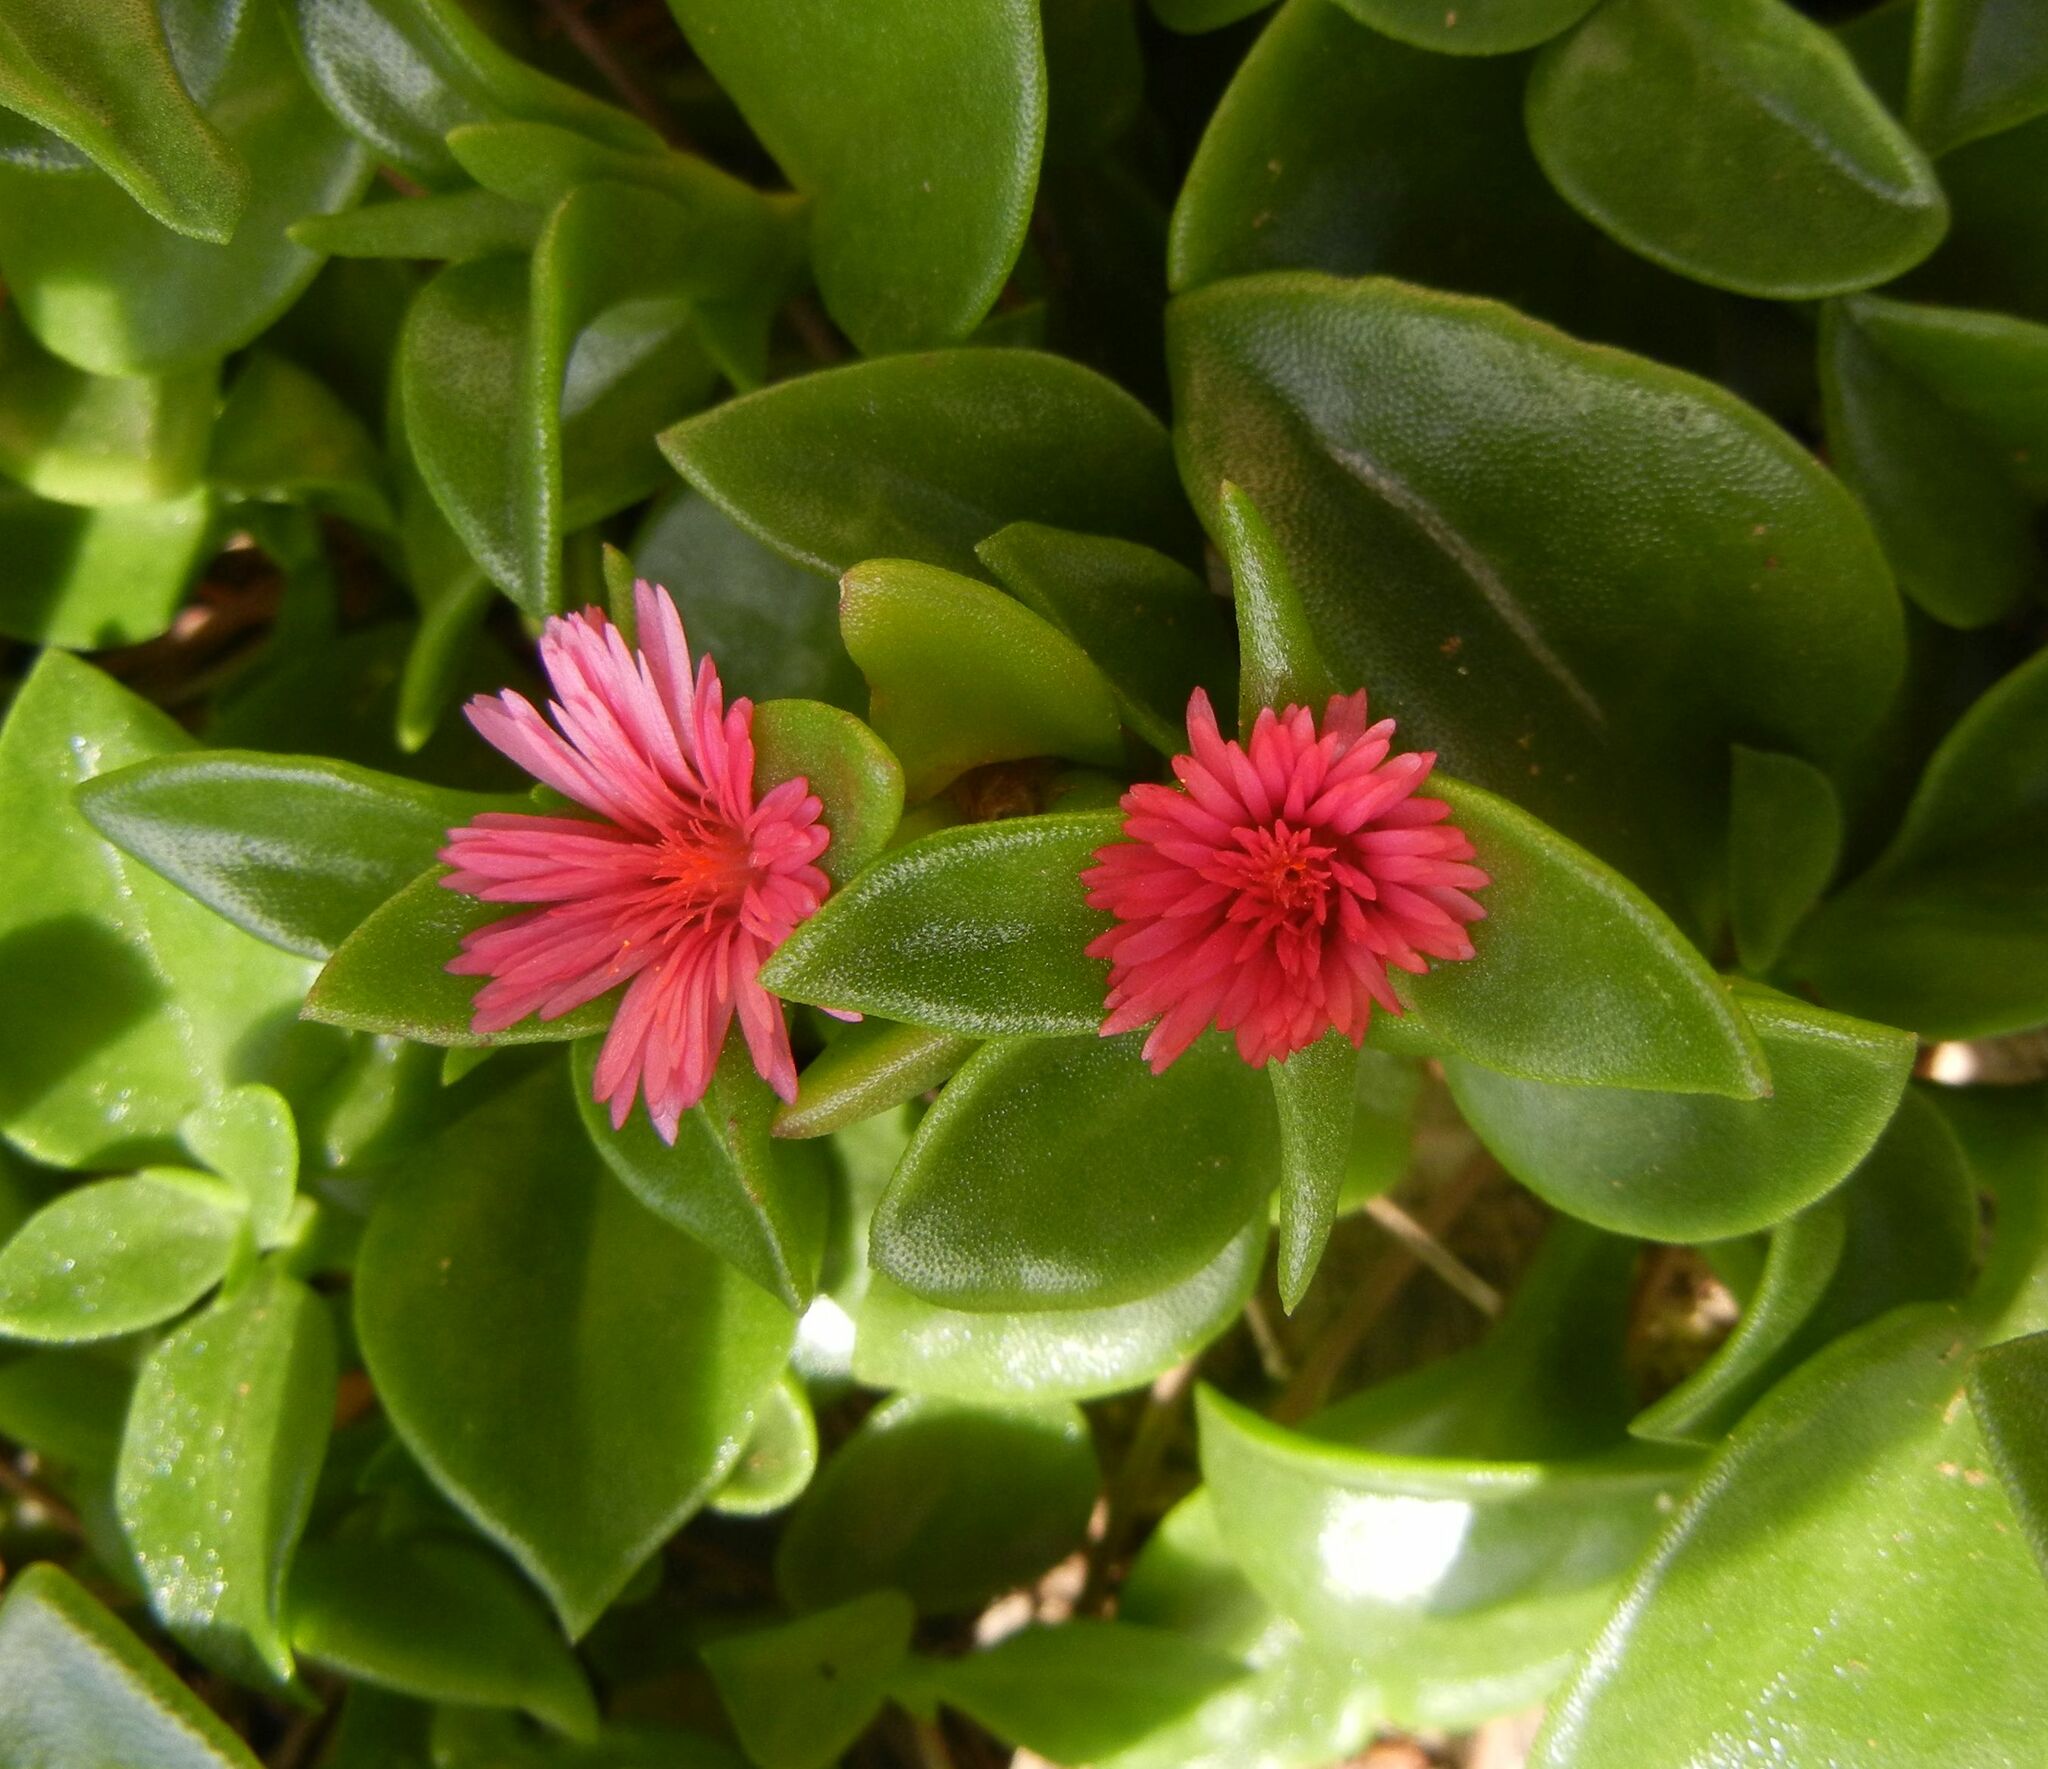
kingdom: Plantae
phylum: Tracheophyta
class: Magnoliopsida
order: Caryophyllales
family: Aizoaceae
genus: Mesembryanthemum
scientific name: Mesembryanthemum cordifolium
